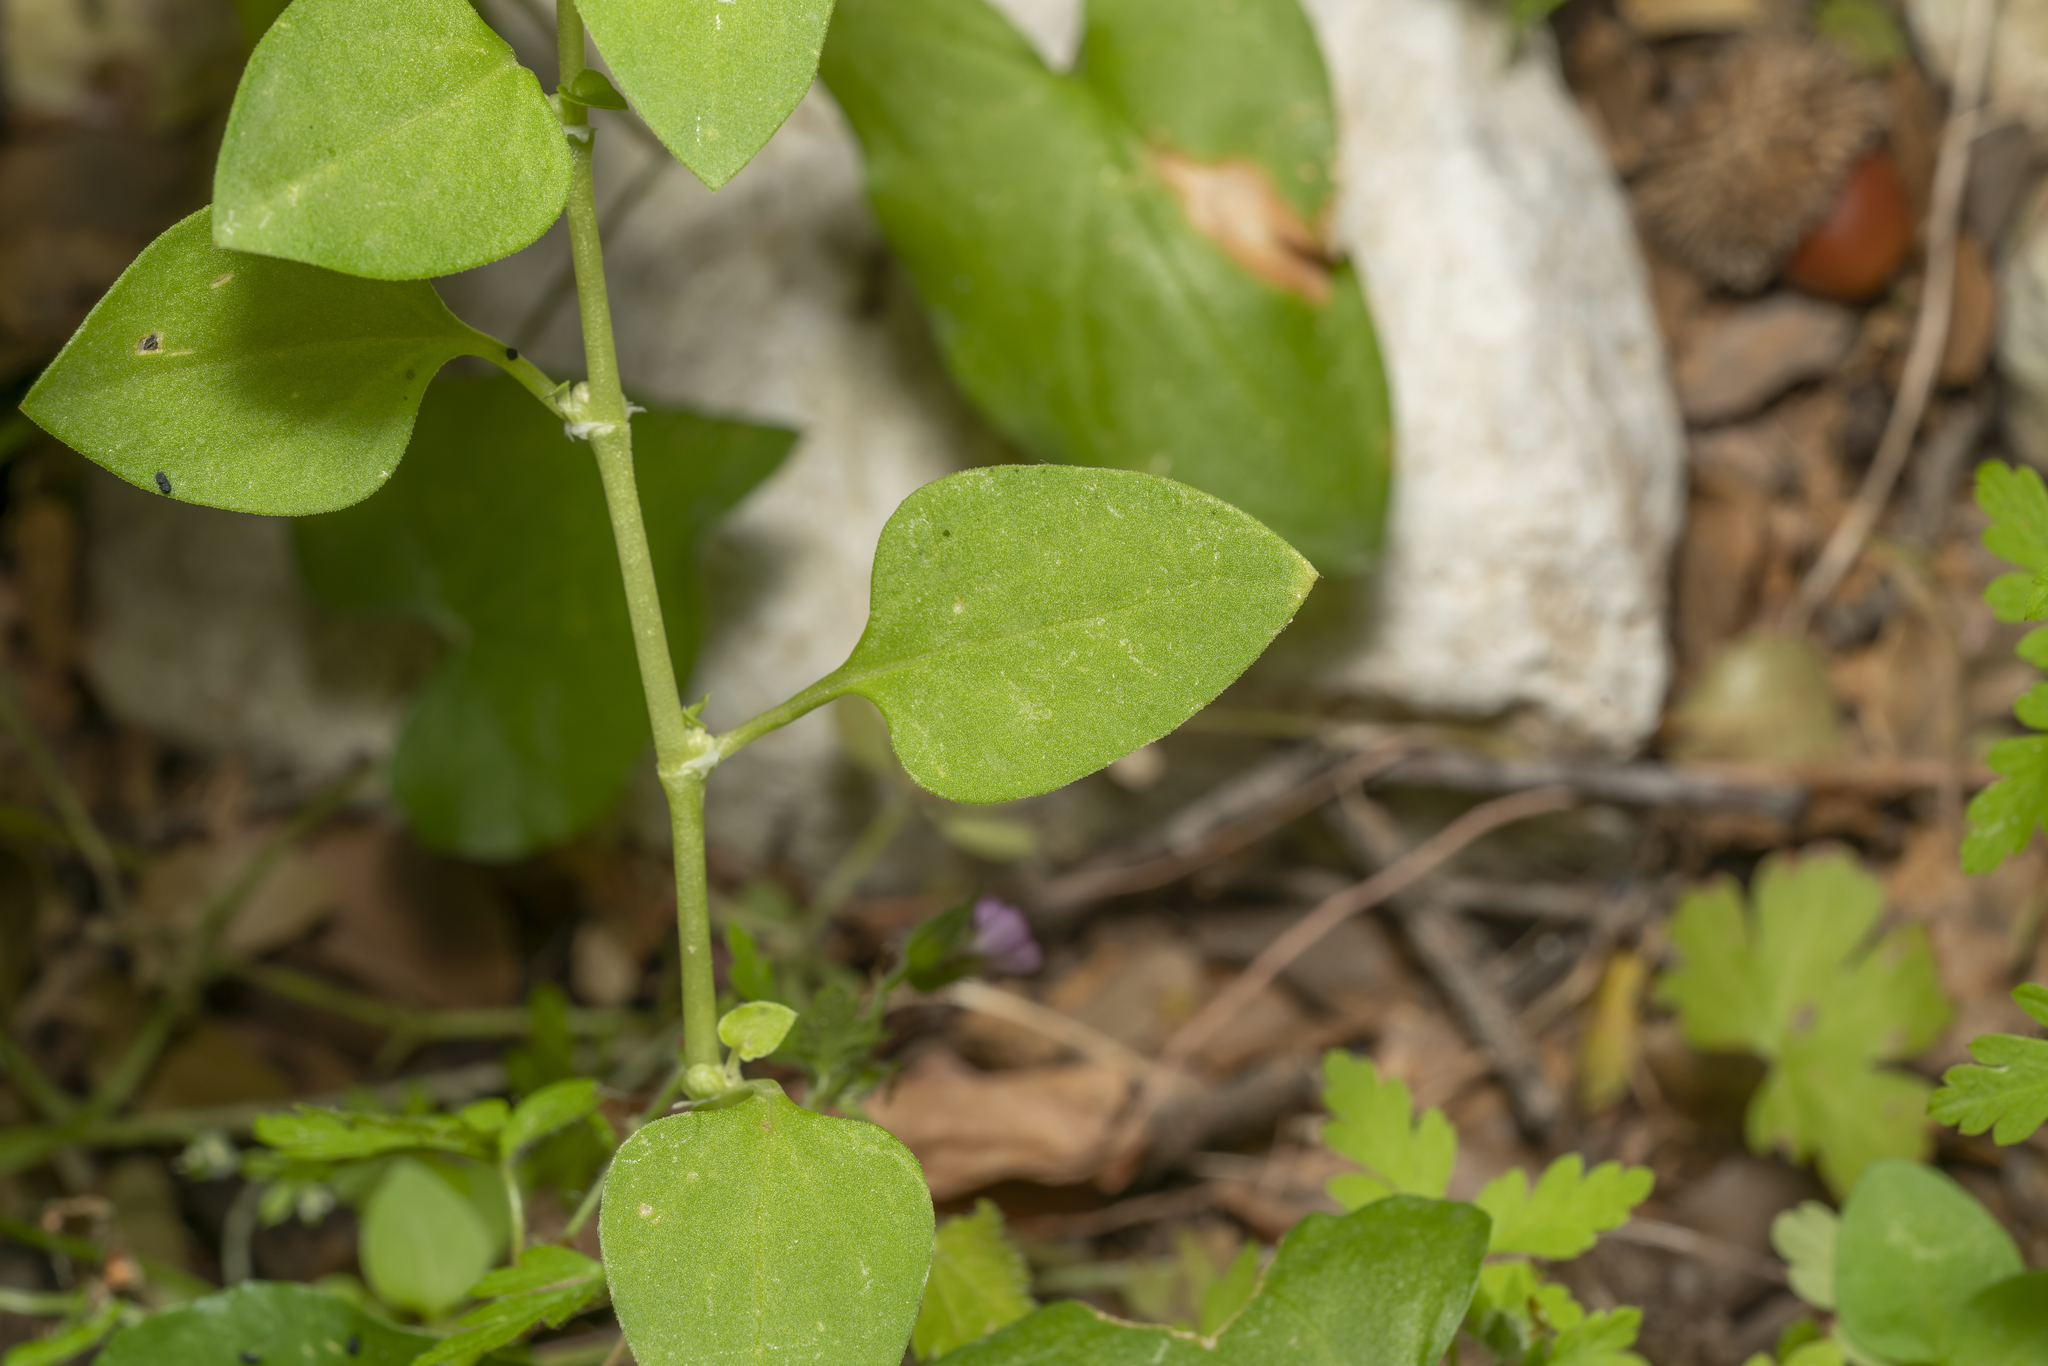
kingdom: Plantae
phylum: Tracheophyta
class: Magnoliopsida
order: Gentianales
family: Rubiaceae
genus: Theligonum
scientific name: Theligonum cynocrambe
